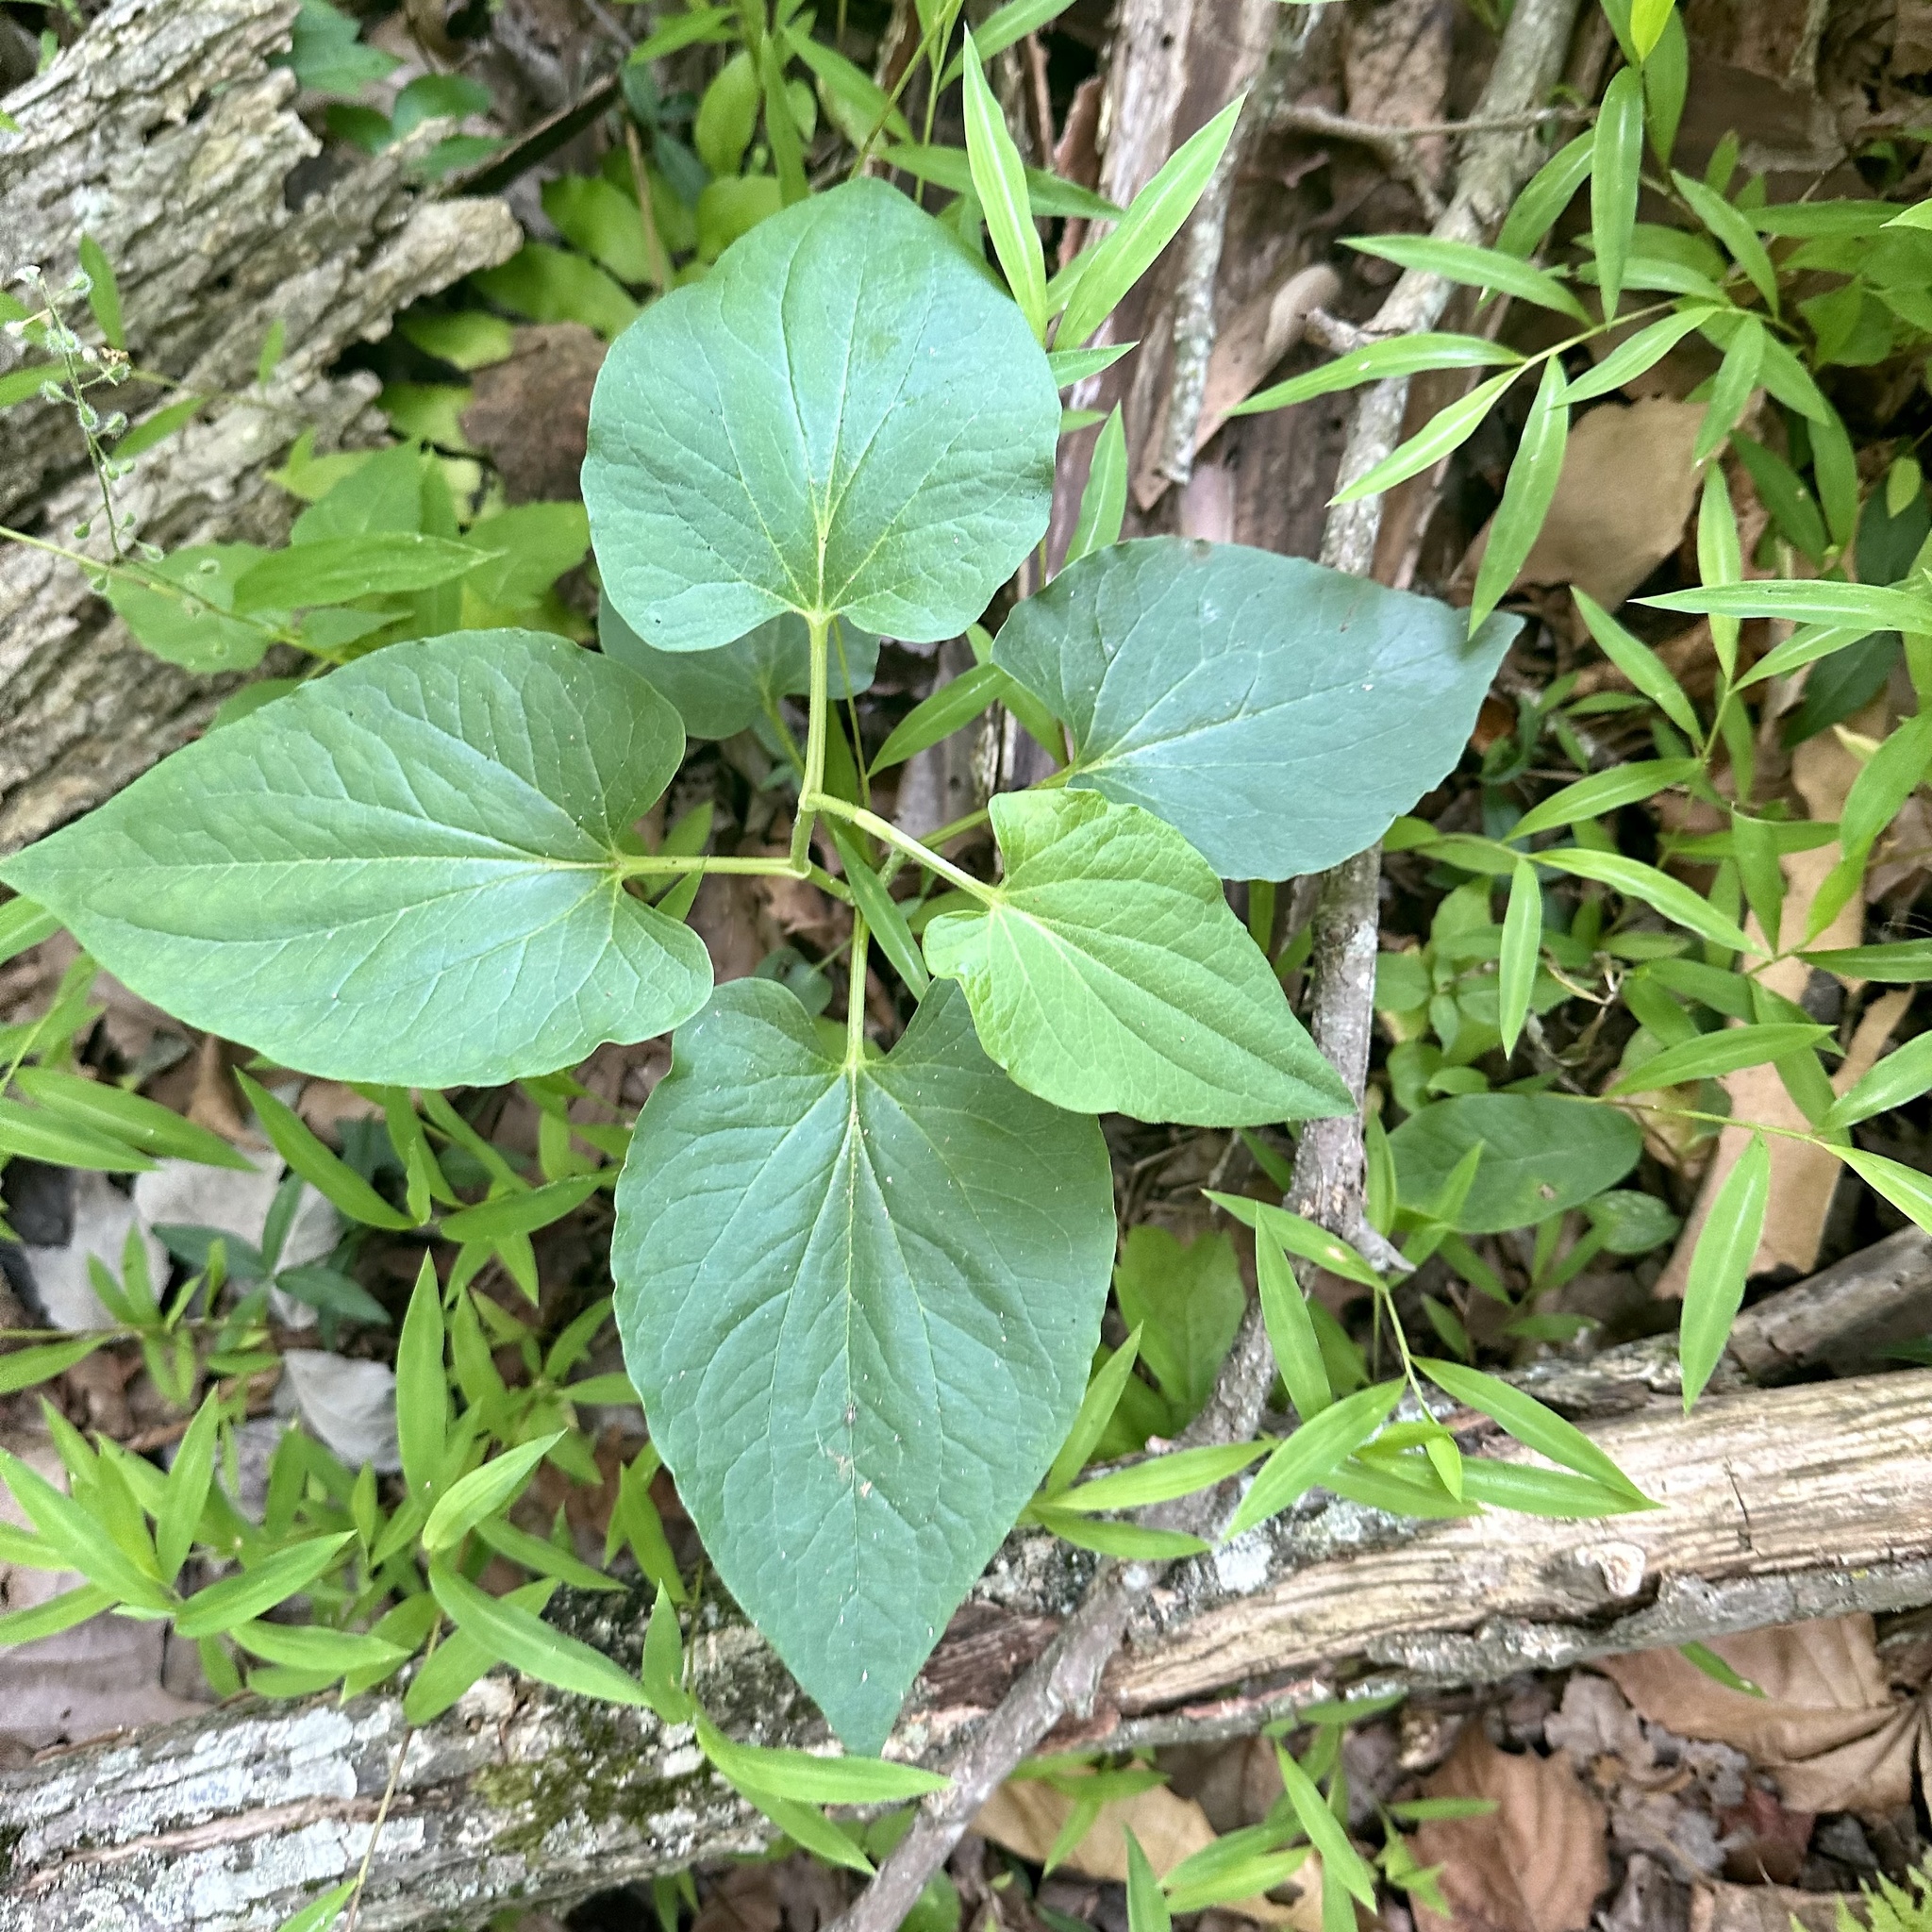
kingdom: Plantae
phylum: Tracheophyta
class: Magnoliopsida
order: Piperales
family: Saururaceae
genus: Saururus
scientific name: Saururus cernuus
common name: Lizard's-tail
